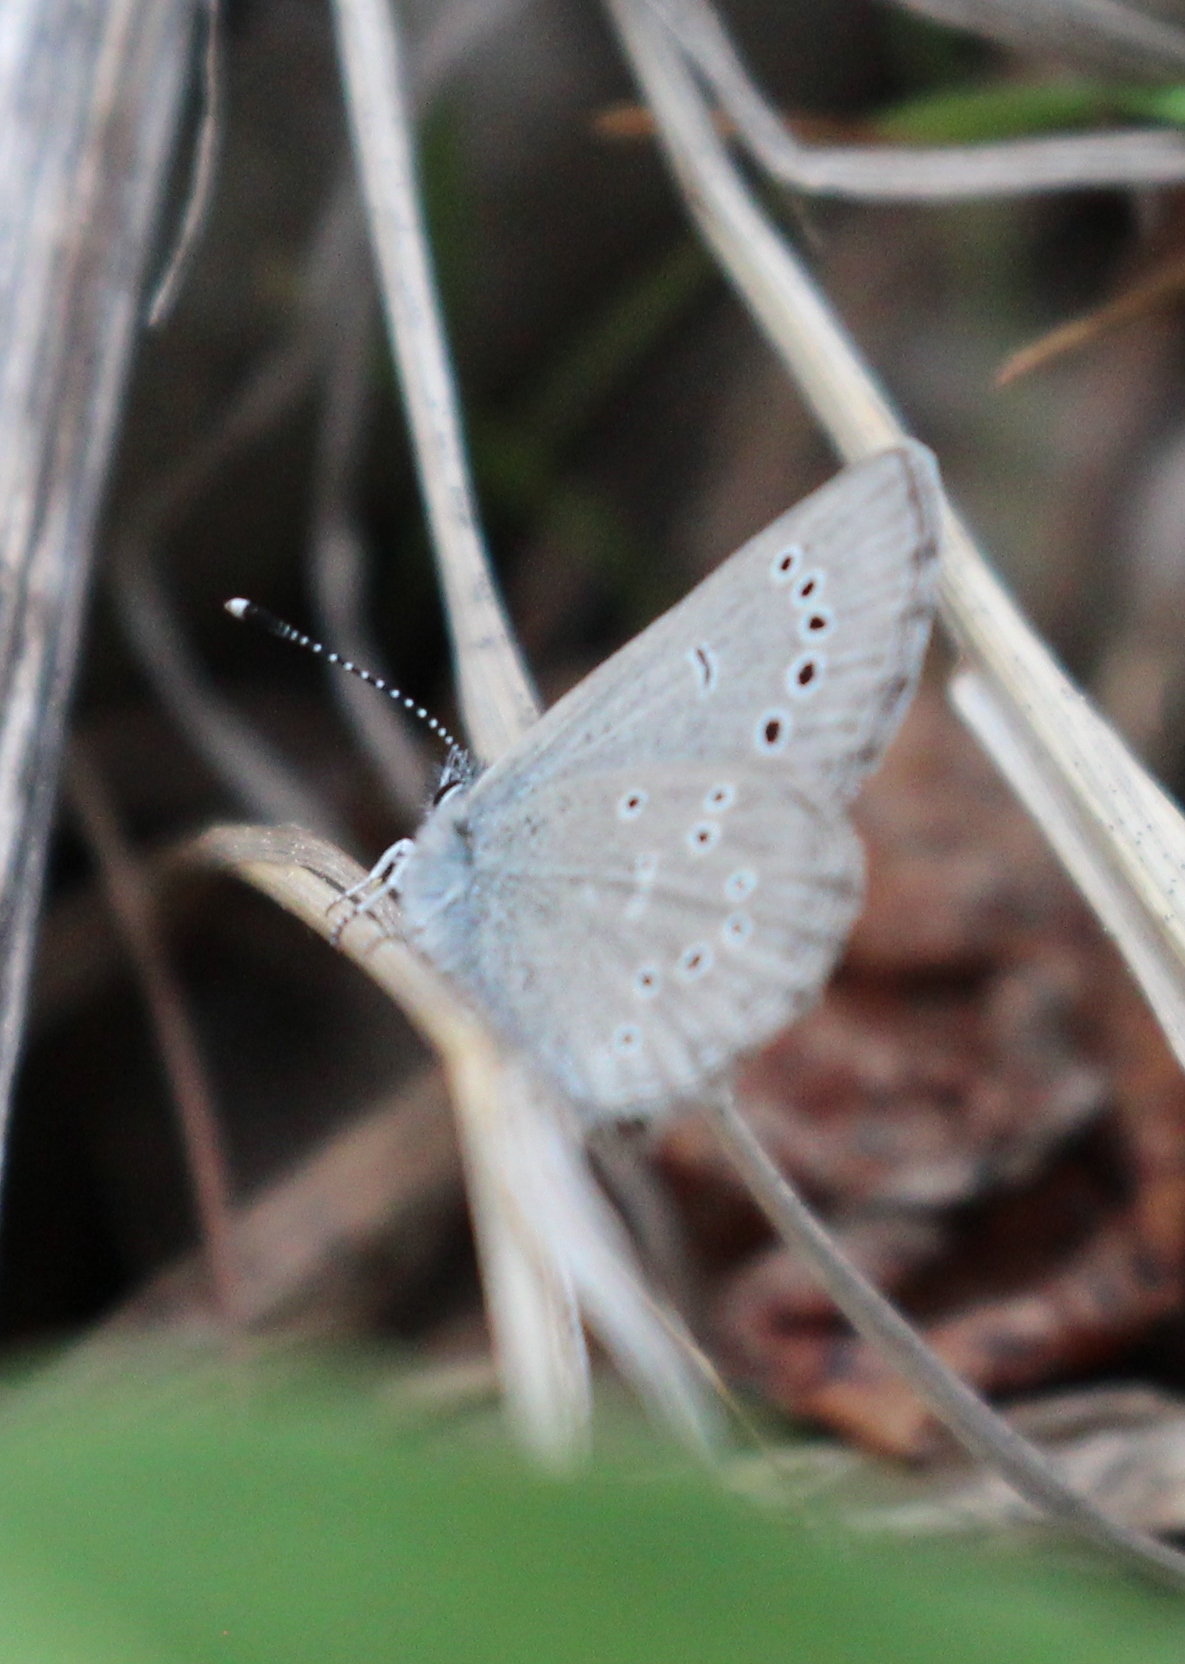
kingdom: Animalia
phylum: Arthropoda
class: Insecta
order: Lepidoptera
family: Lycaenidae
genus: Glaucopsyche
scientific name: Glaucopsyche lygdamus
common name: Silvery blue
